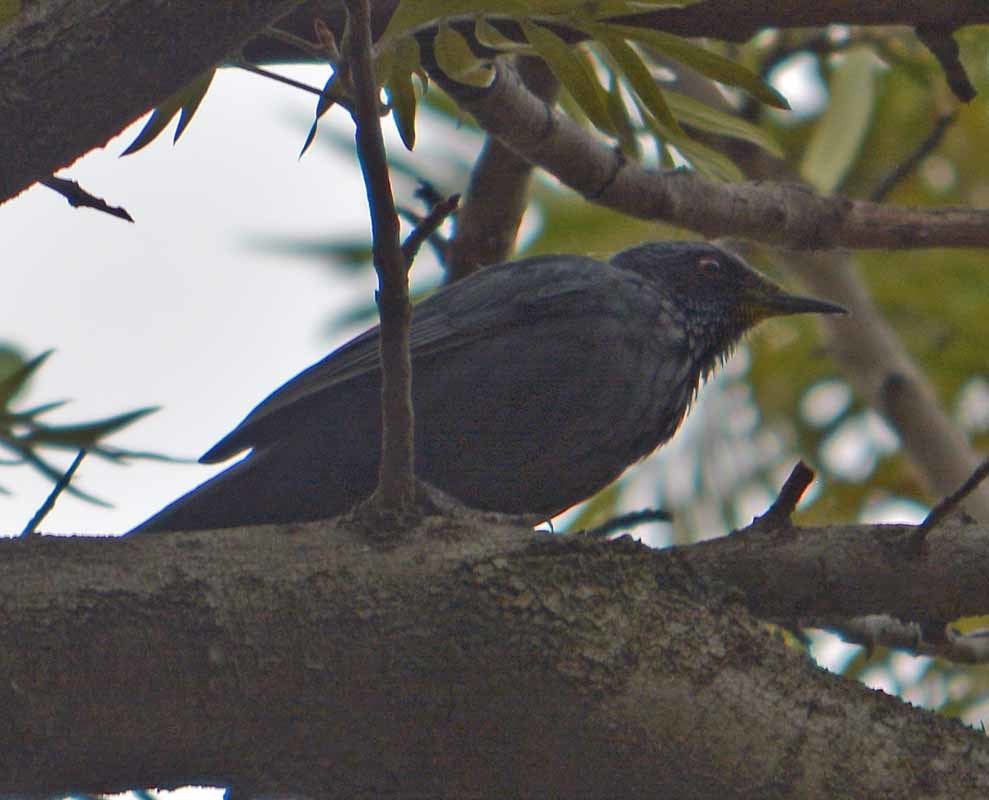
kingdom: Animalia
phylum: Chordata
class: Aves
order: Passeriformes
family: Mimidae
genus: Melanotis
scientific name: Melanotis caerulescens
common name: Blue mockingbird
